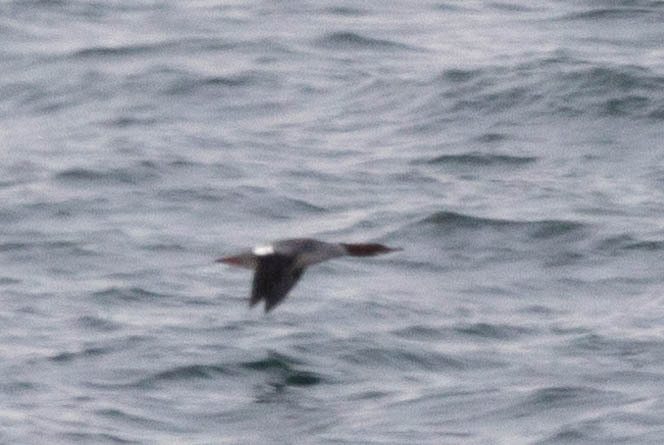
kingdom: Animalia
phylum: Chordata
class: Aves
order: Anseriformes
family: Anatidae
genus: Mergus
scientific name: Mergus merganser
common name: Common merganser
